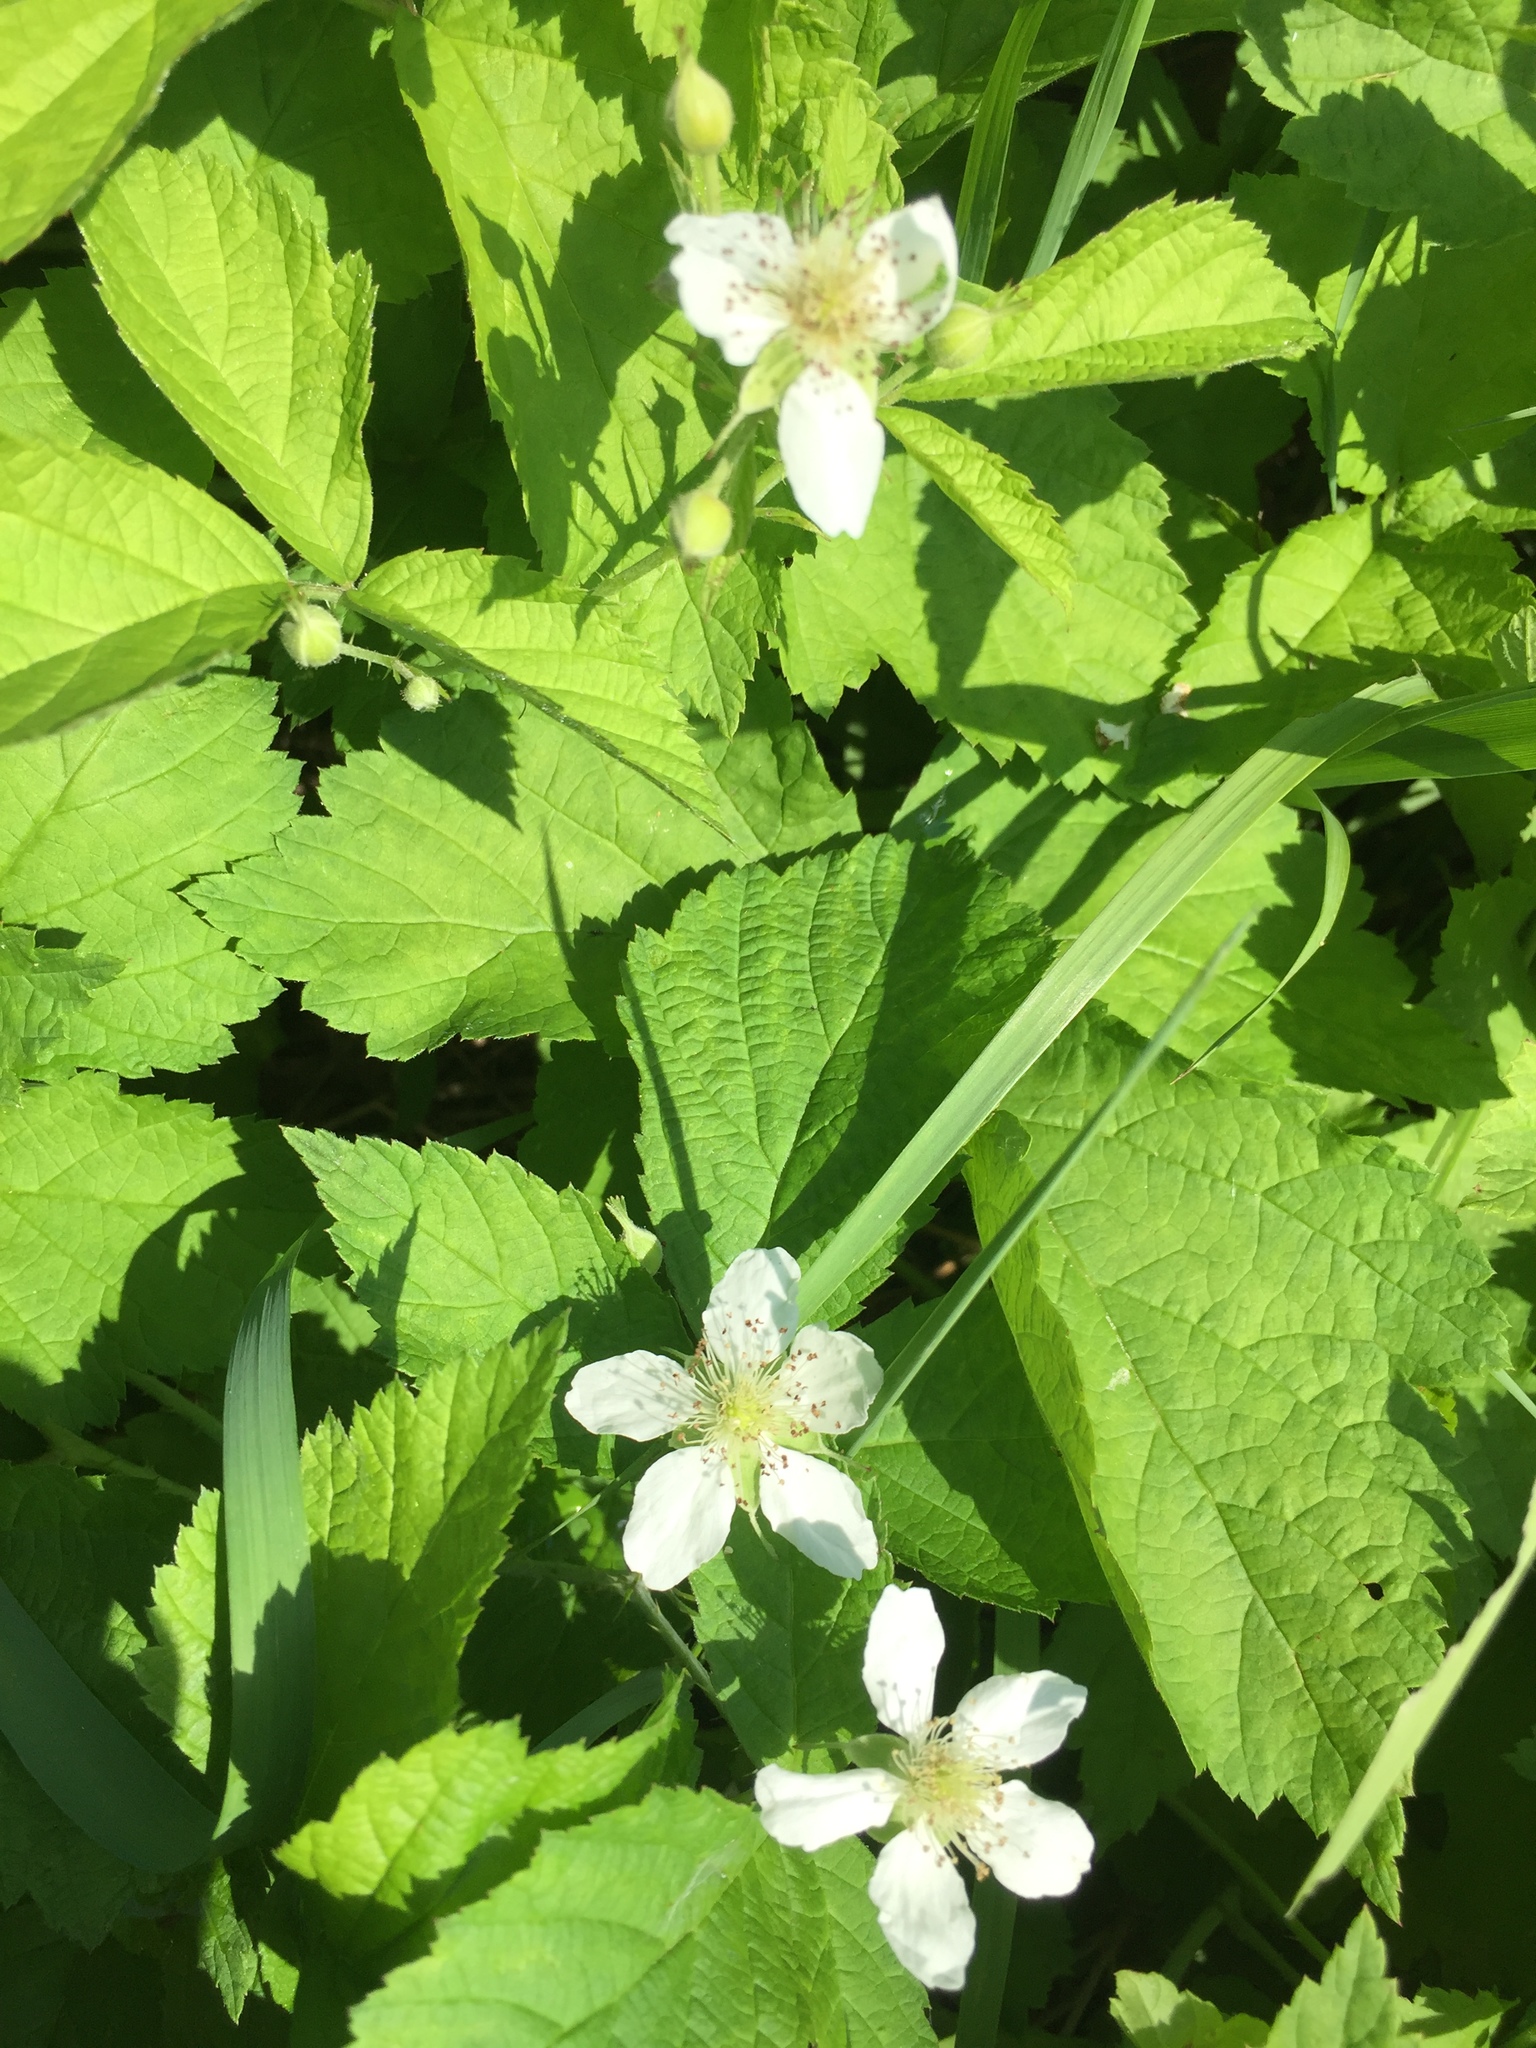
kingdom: Plantae
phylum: Tracheophyta
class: Magnoliopsida
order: Rosales
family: Rosaceae
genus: Rubus
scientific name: Rubus caesius
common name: Dewberry
